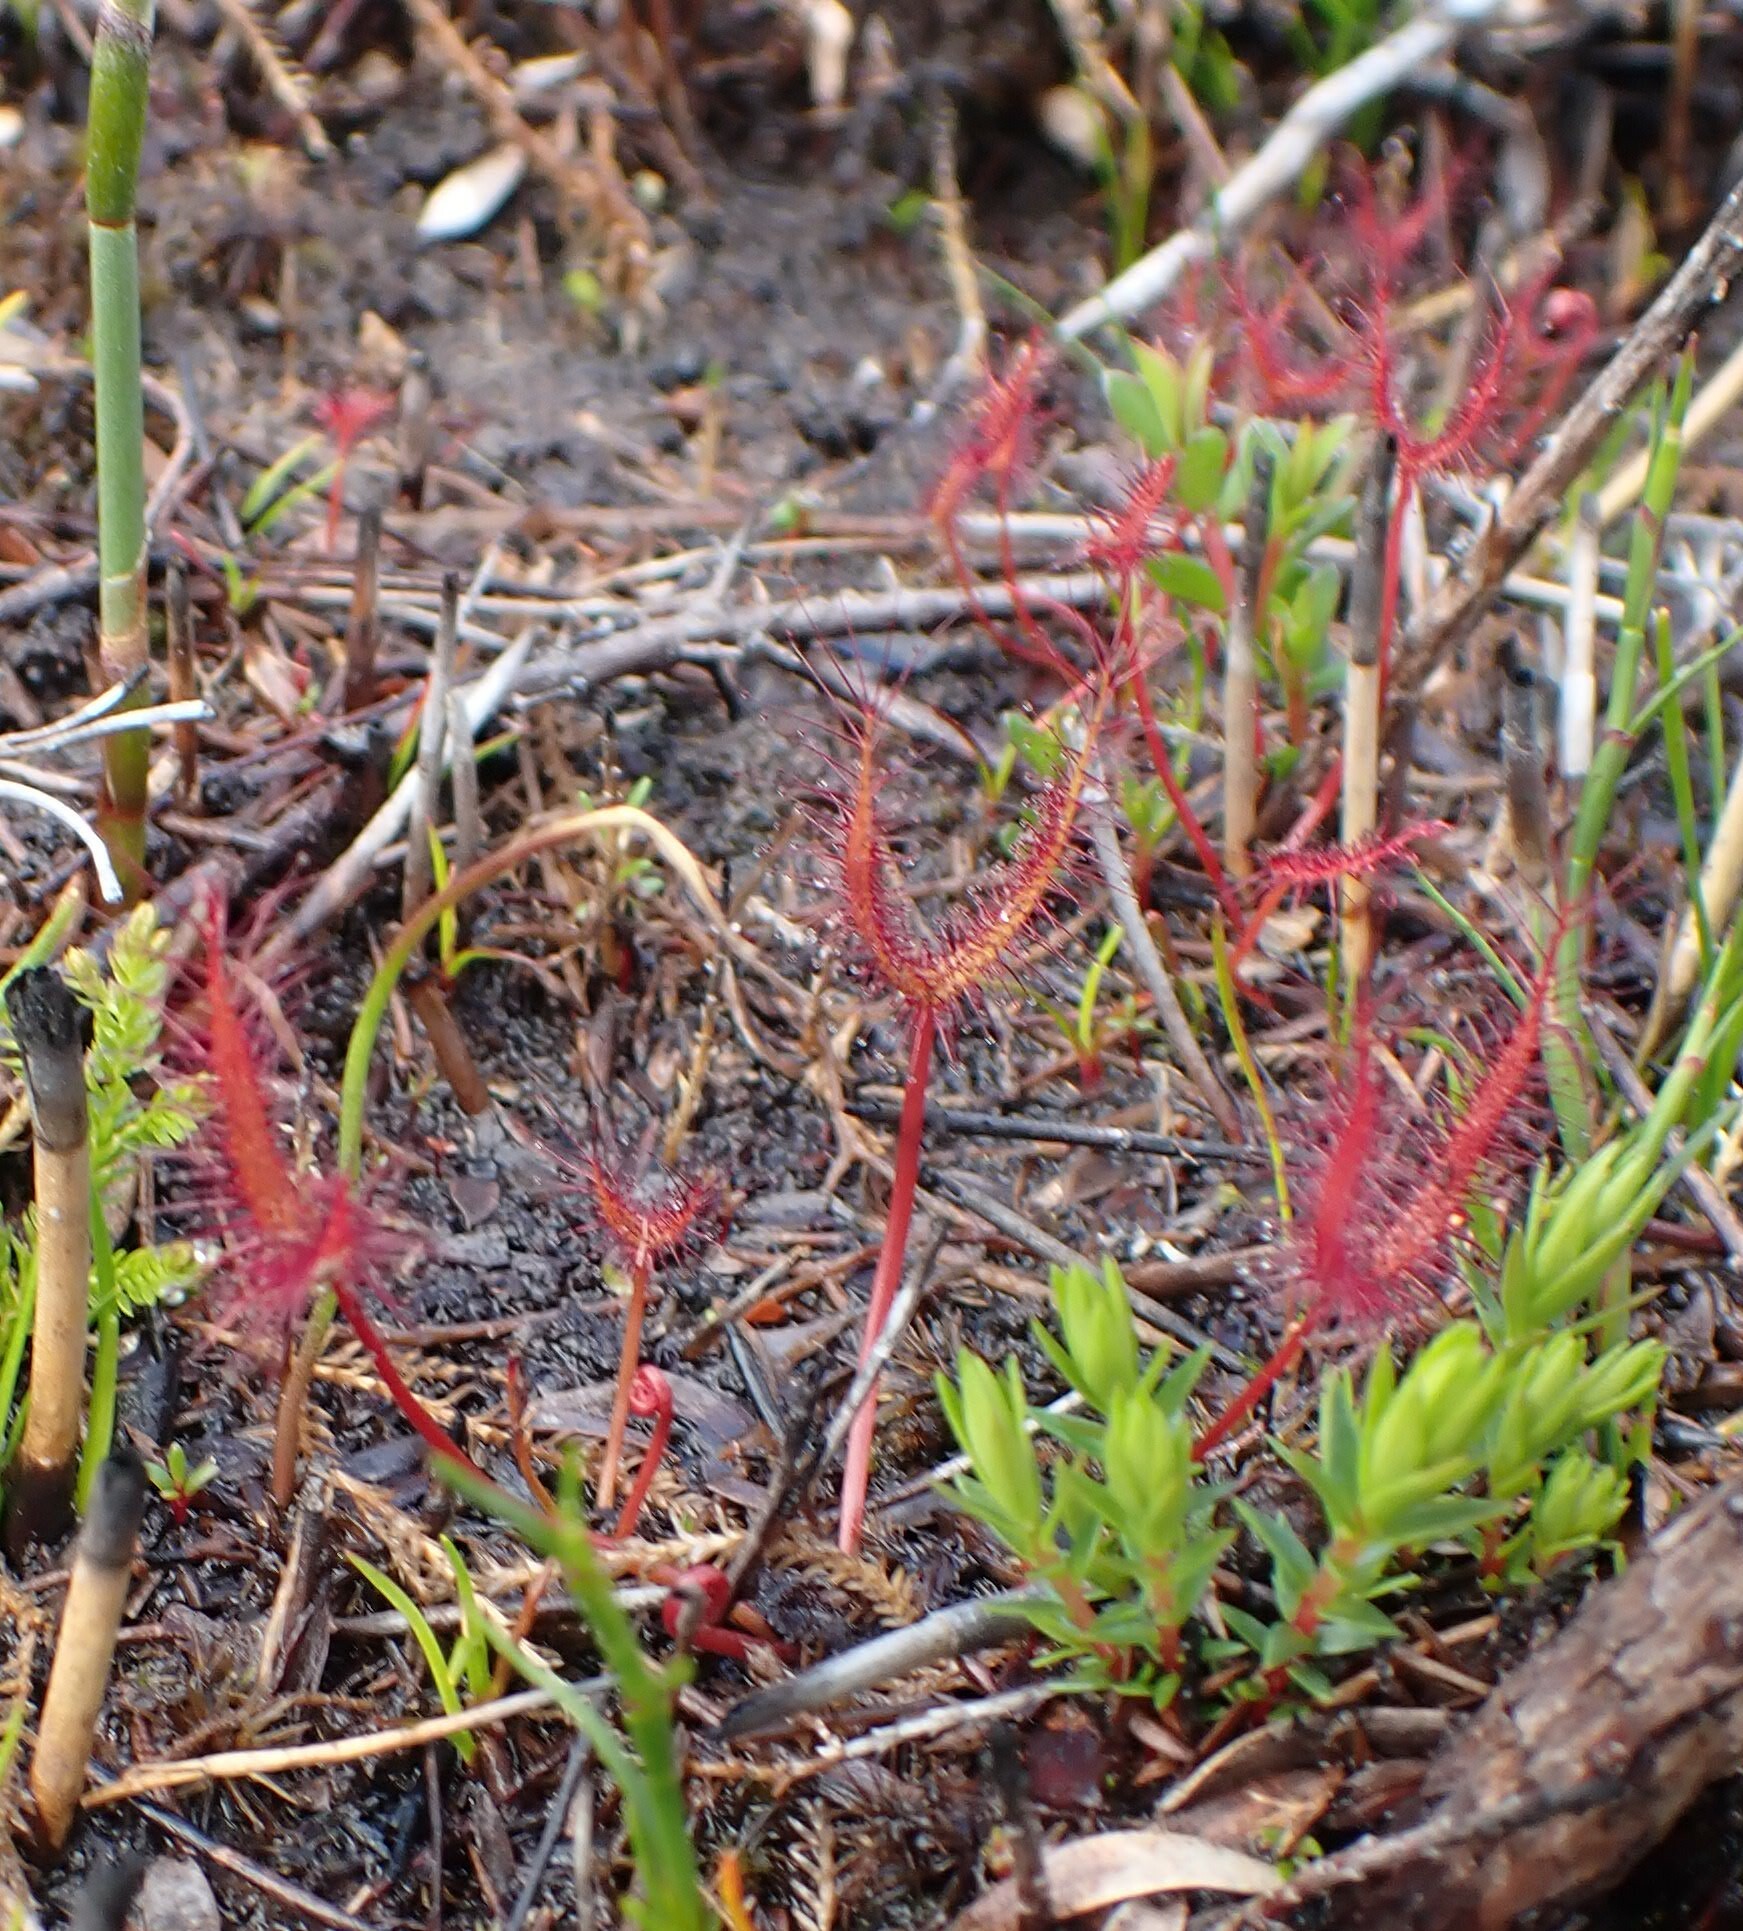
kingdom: Plantae
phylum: Tracheophyta
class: Magnoliopsida
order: Caryophyllales
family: Droseraceae
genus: Drosera
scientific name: Drosera binata
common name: Forked sundew
